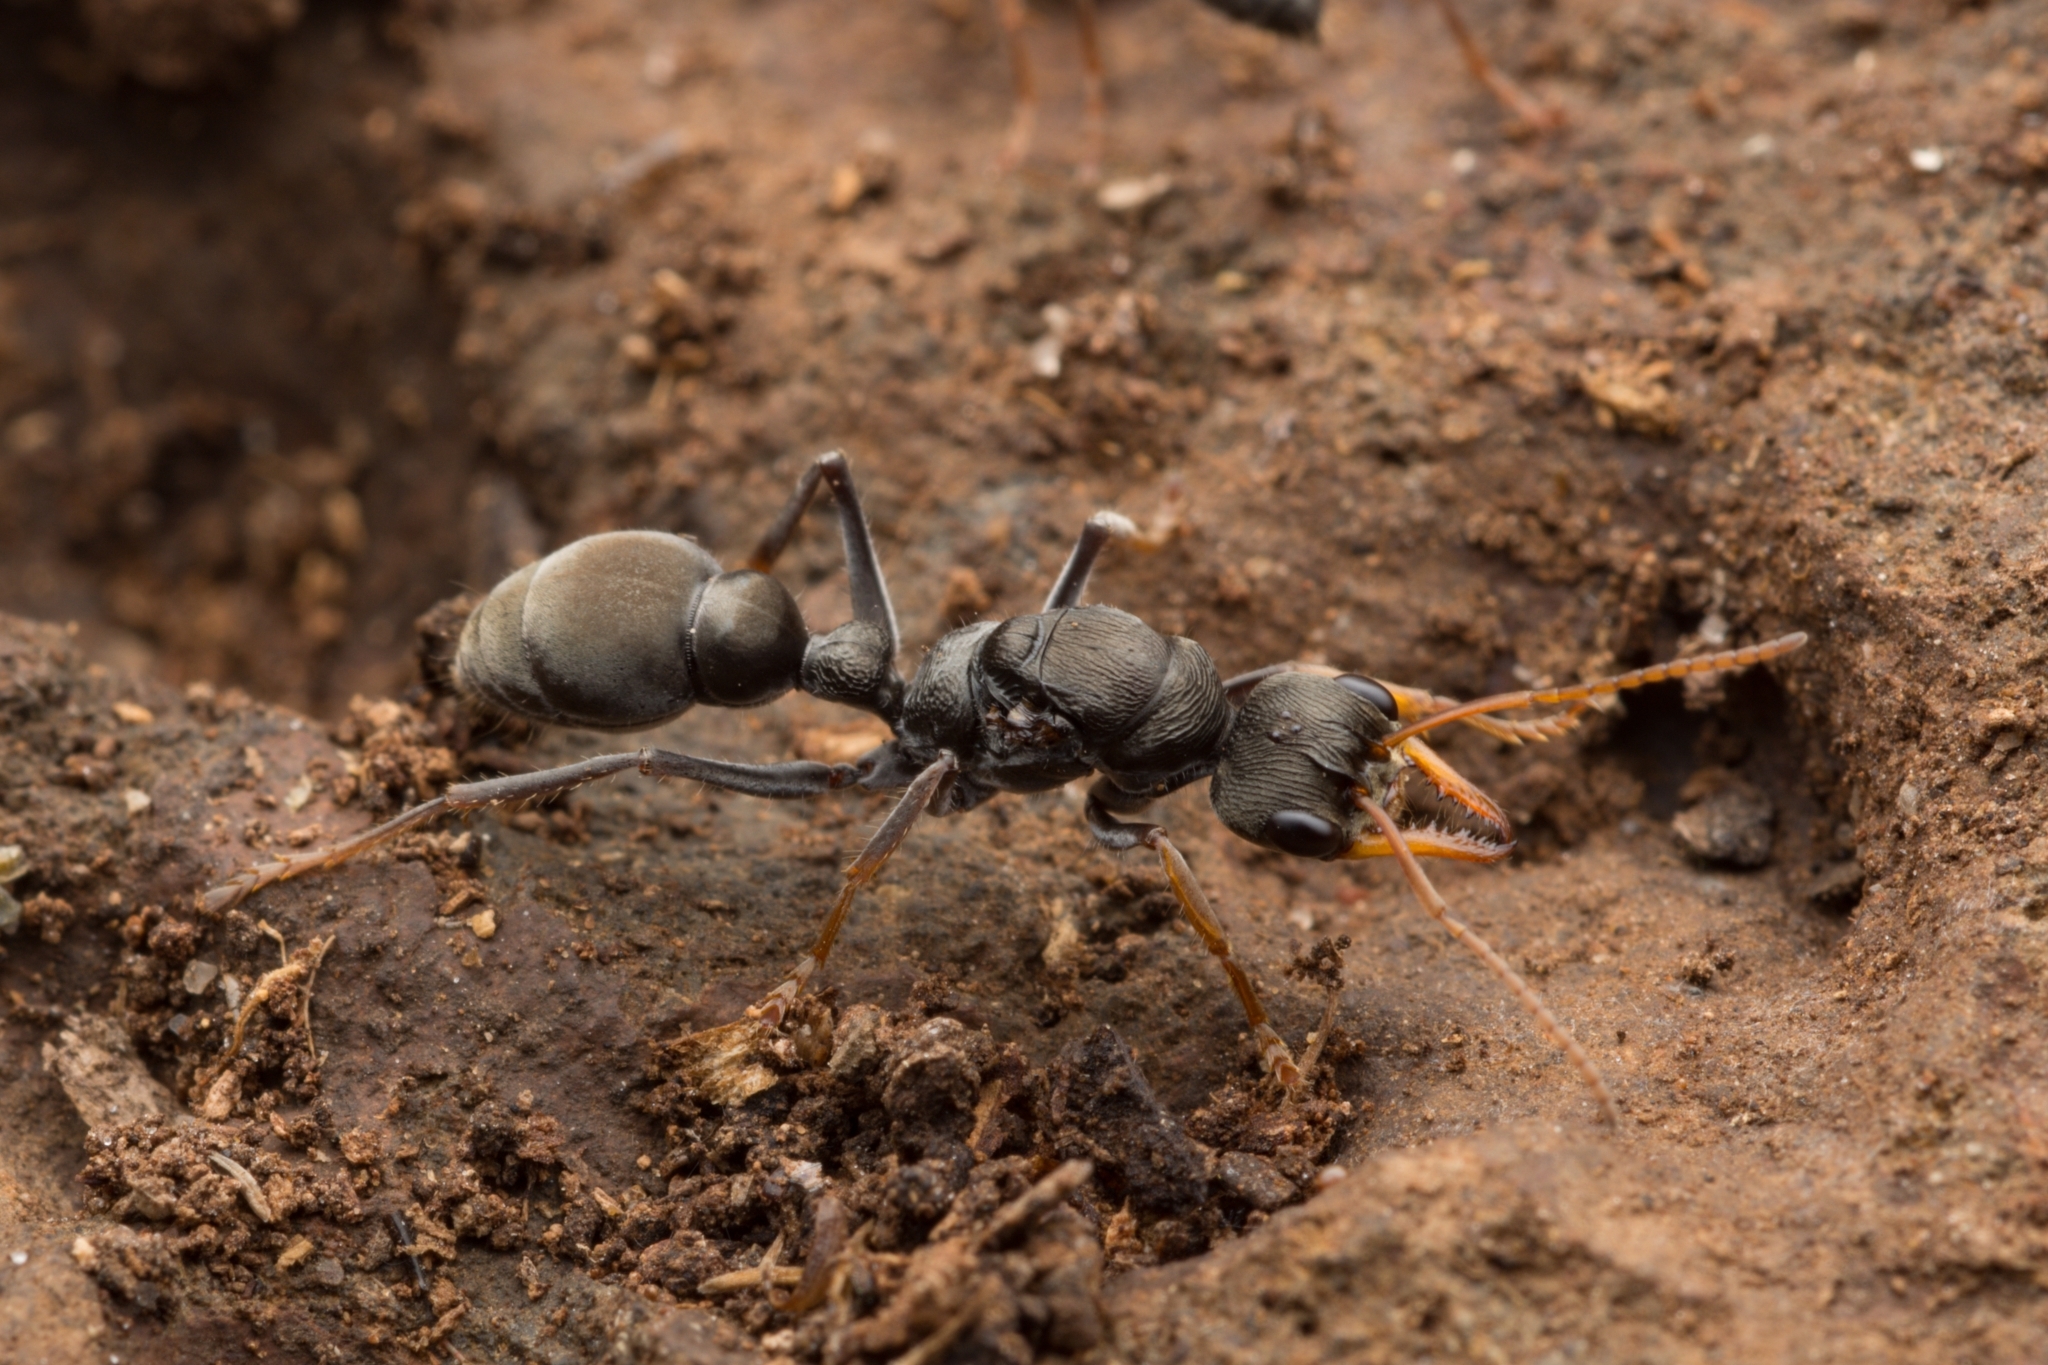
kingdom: Animalia
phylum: Arthropoda
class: Insecta
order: Hymenoptera
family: Formicidae
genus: Myrmecia
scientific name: Myrmecia pilosula
